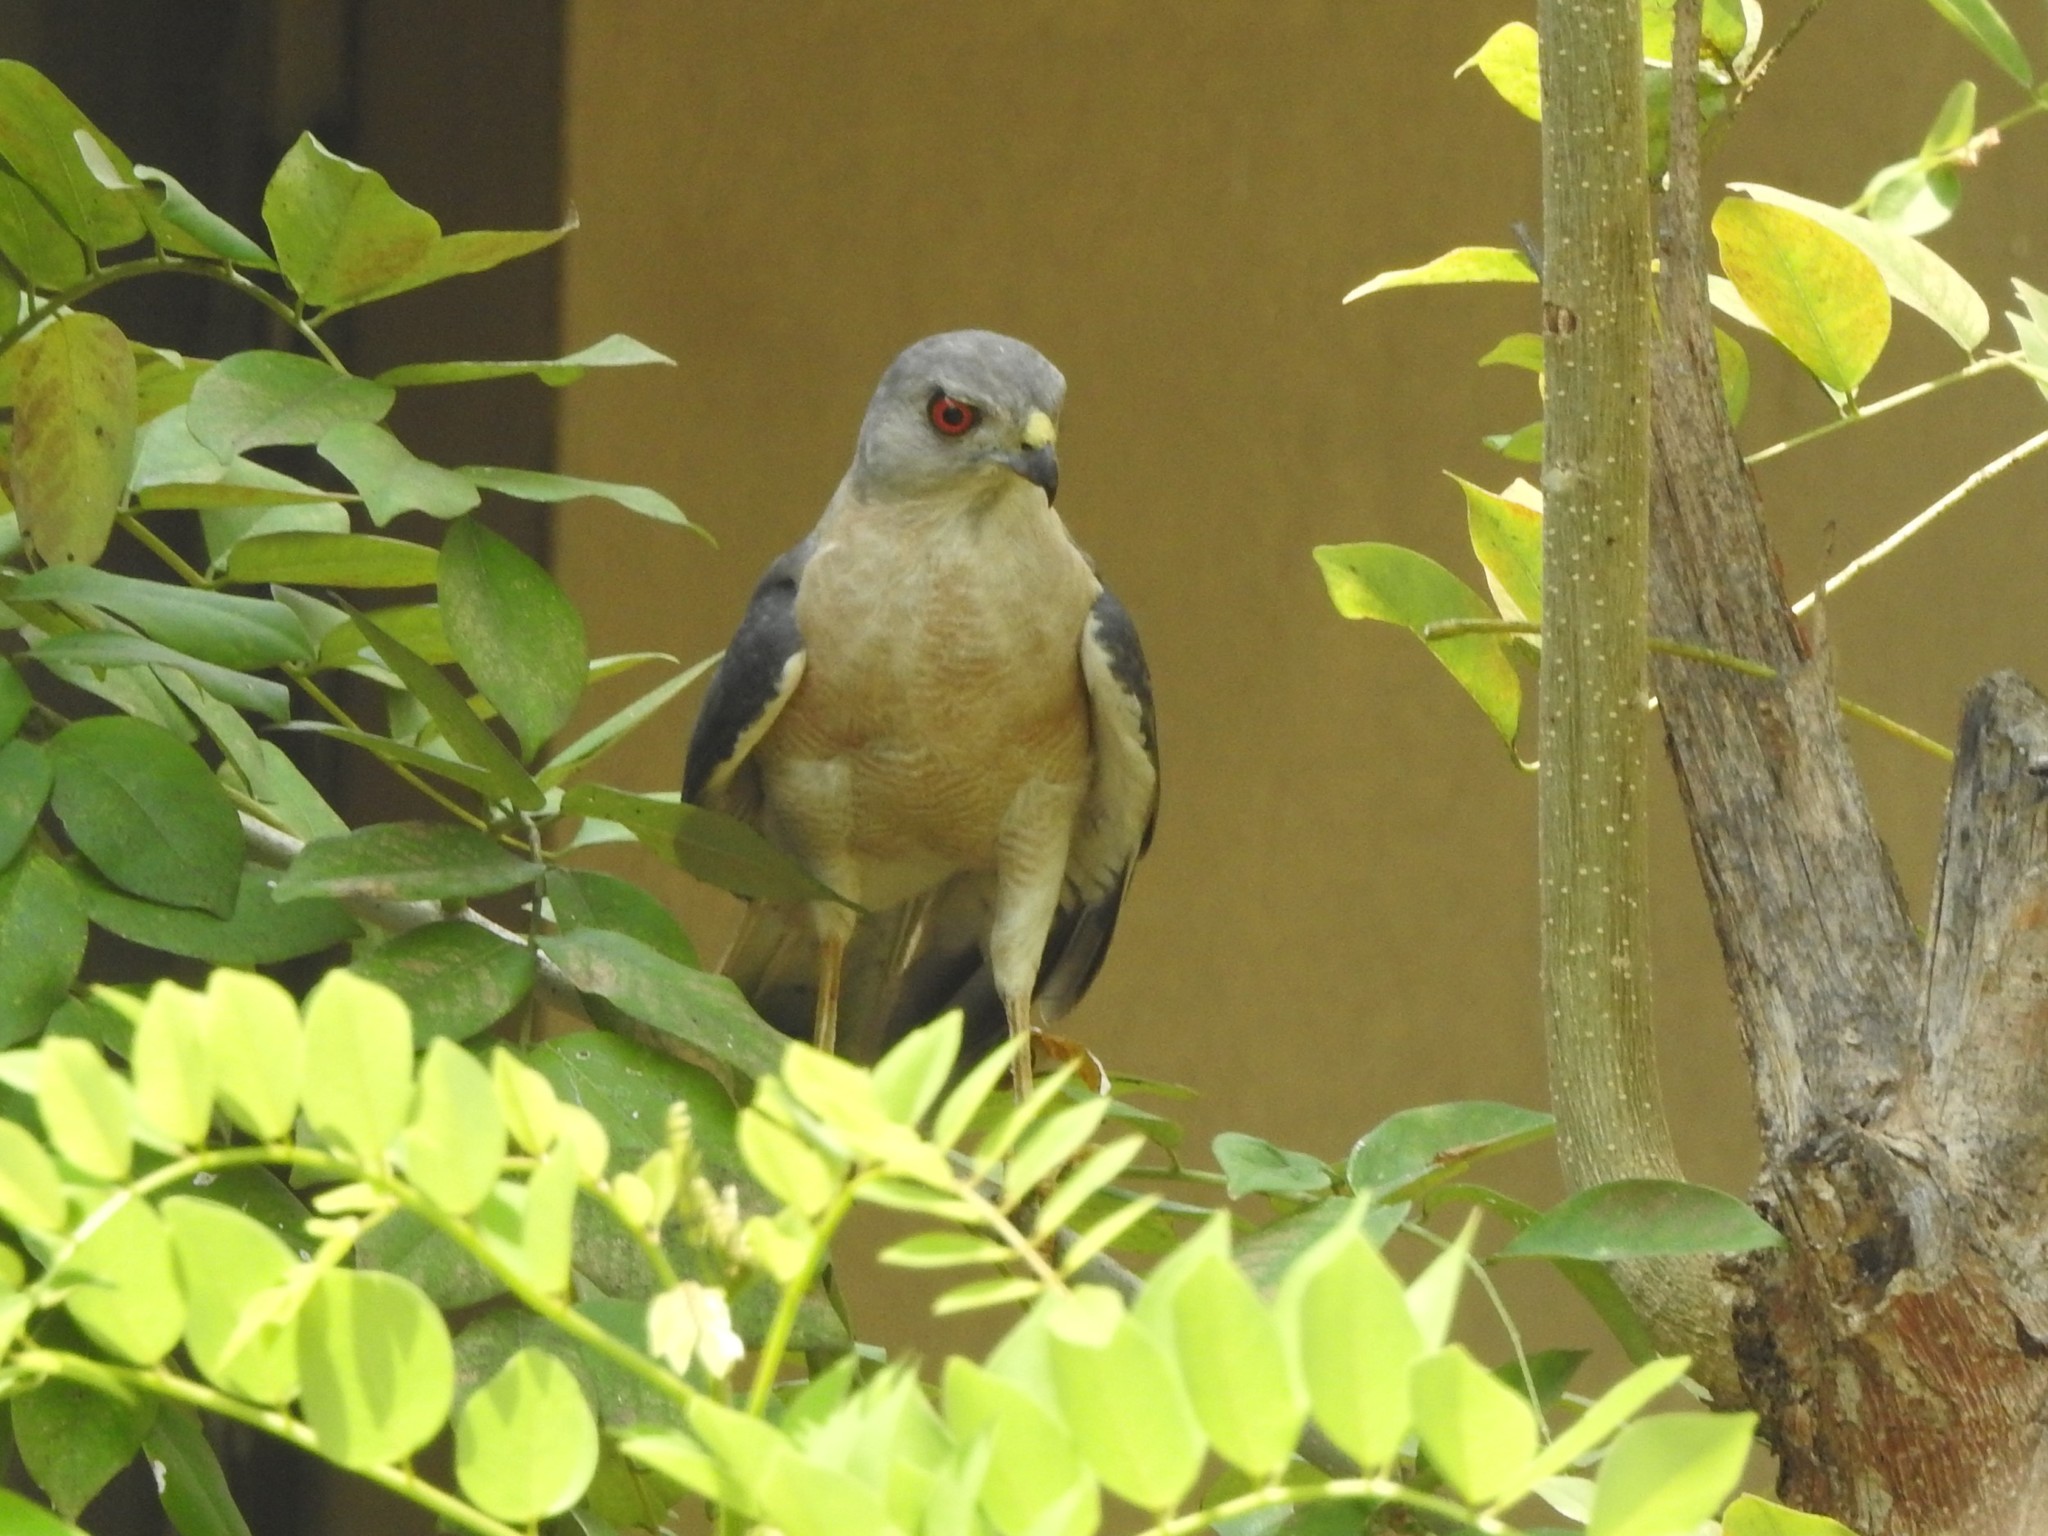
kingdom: Animalia
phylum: Chordata
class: Aves
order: Accipitriformes
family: Accipitridae
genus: Accipiter
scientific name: Accipiter badius
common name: Shikra
